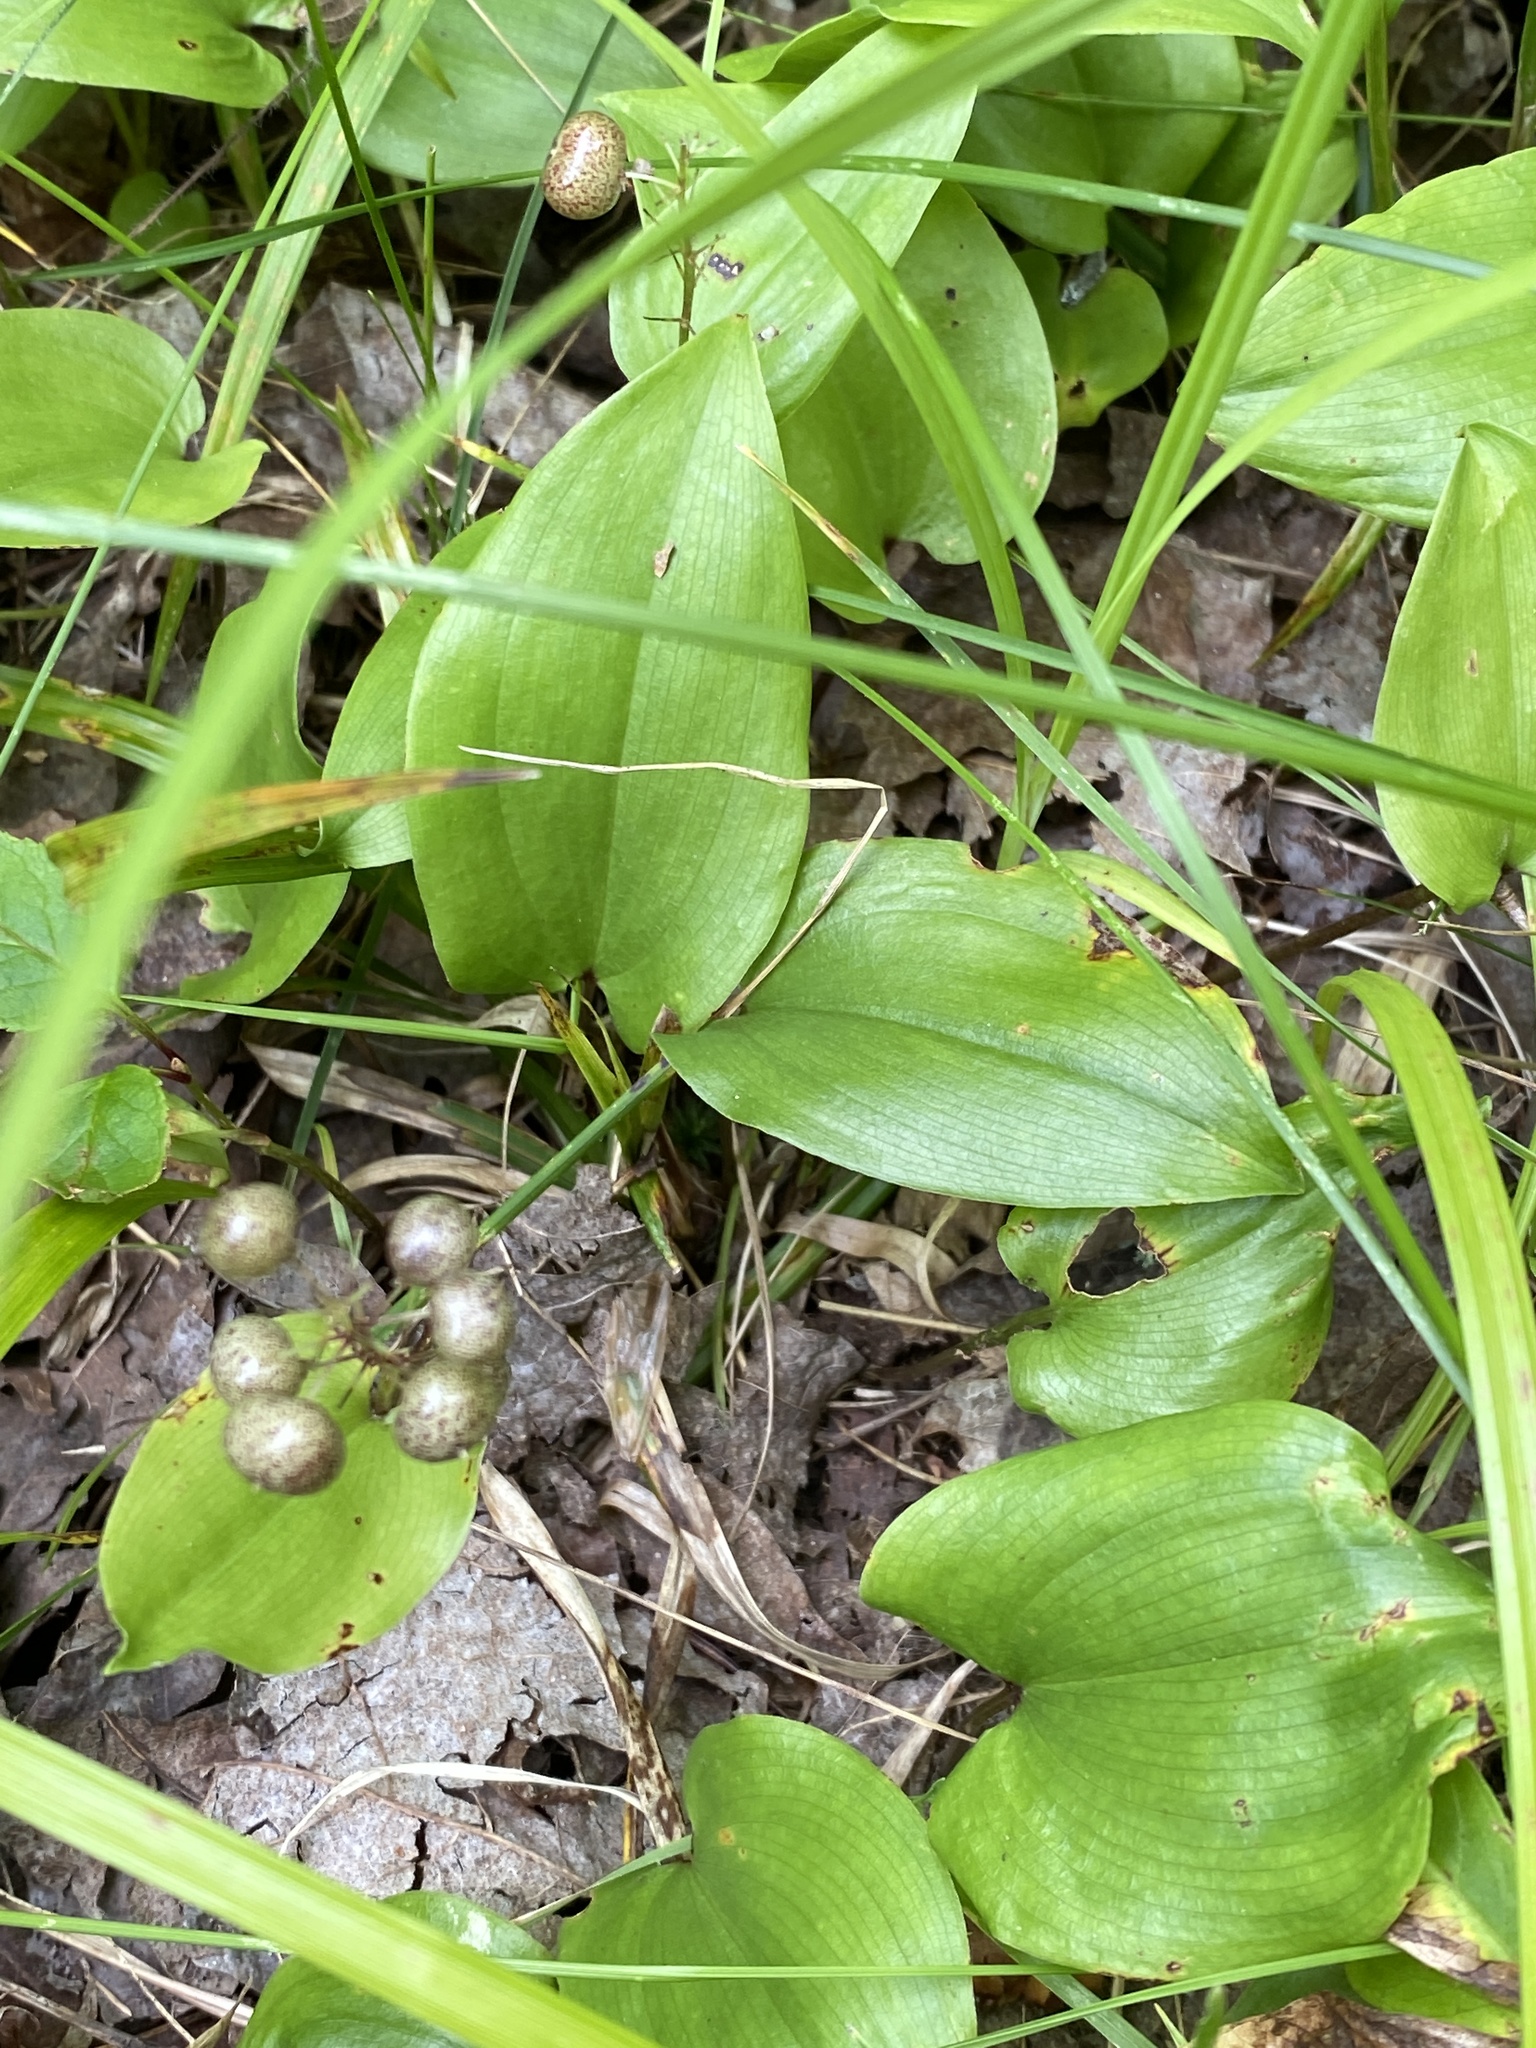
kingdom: Plantae
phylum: Tracheophyta
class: Liliopsida
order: Asparagales
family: Asparagaceae
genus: Maianthemum
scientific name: Maianthemum canadense
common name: False lily-of-the-valley
